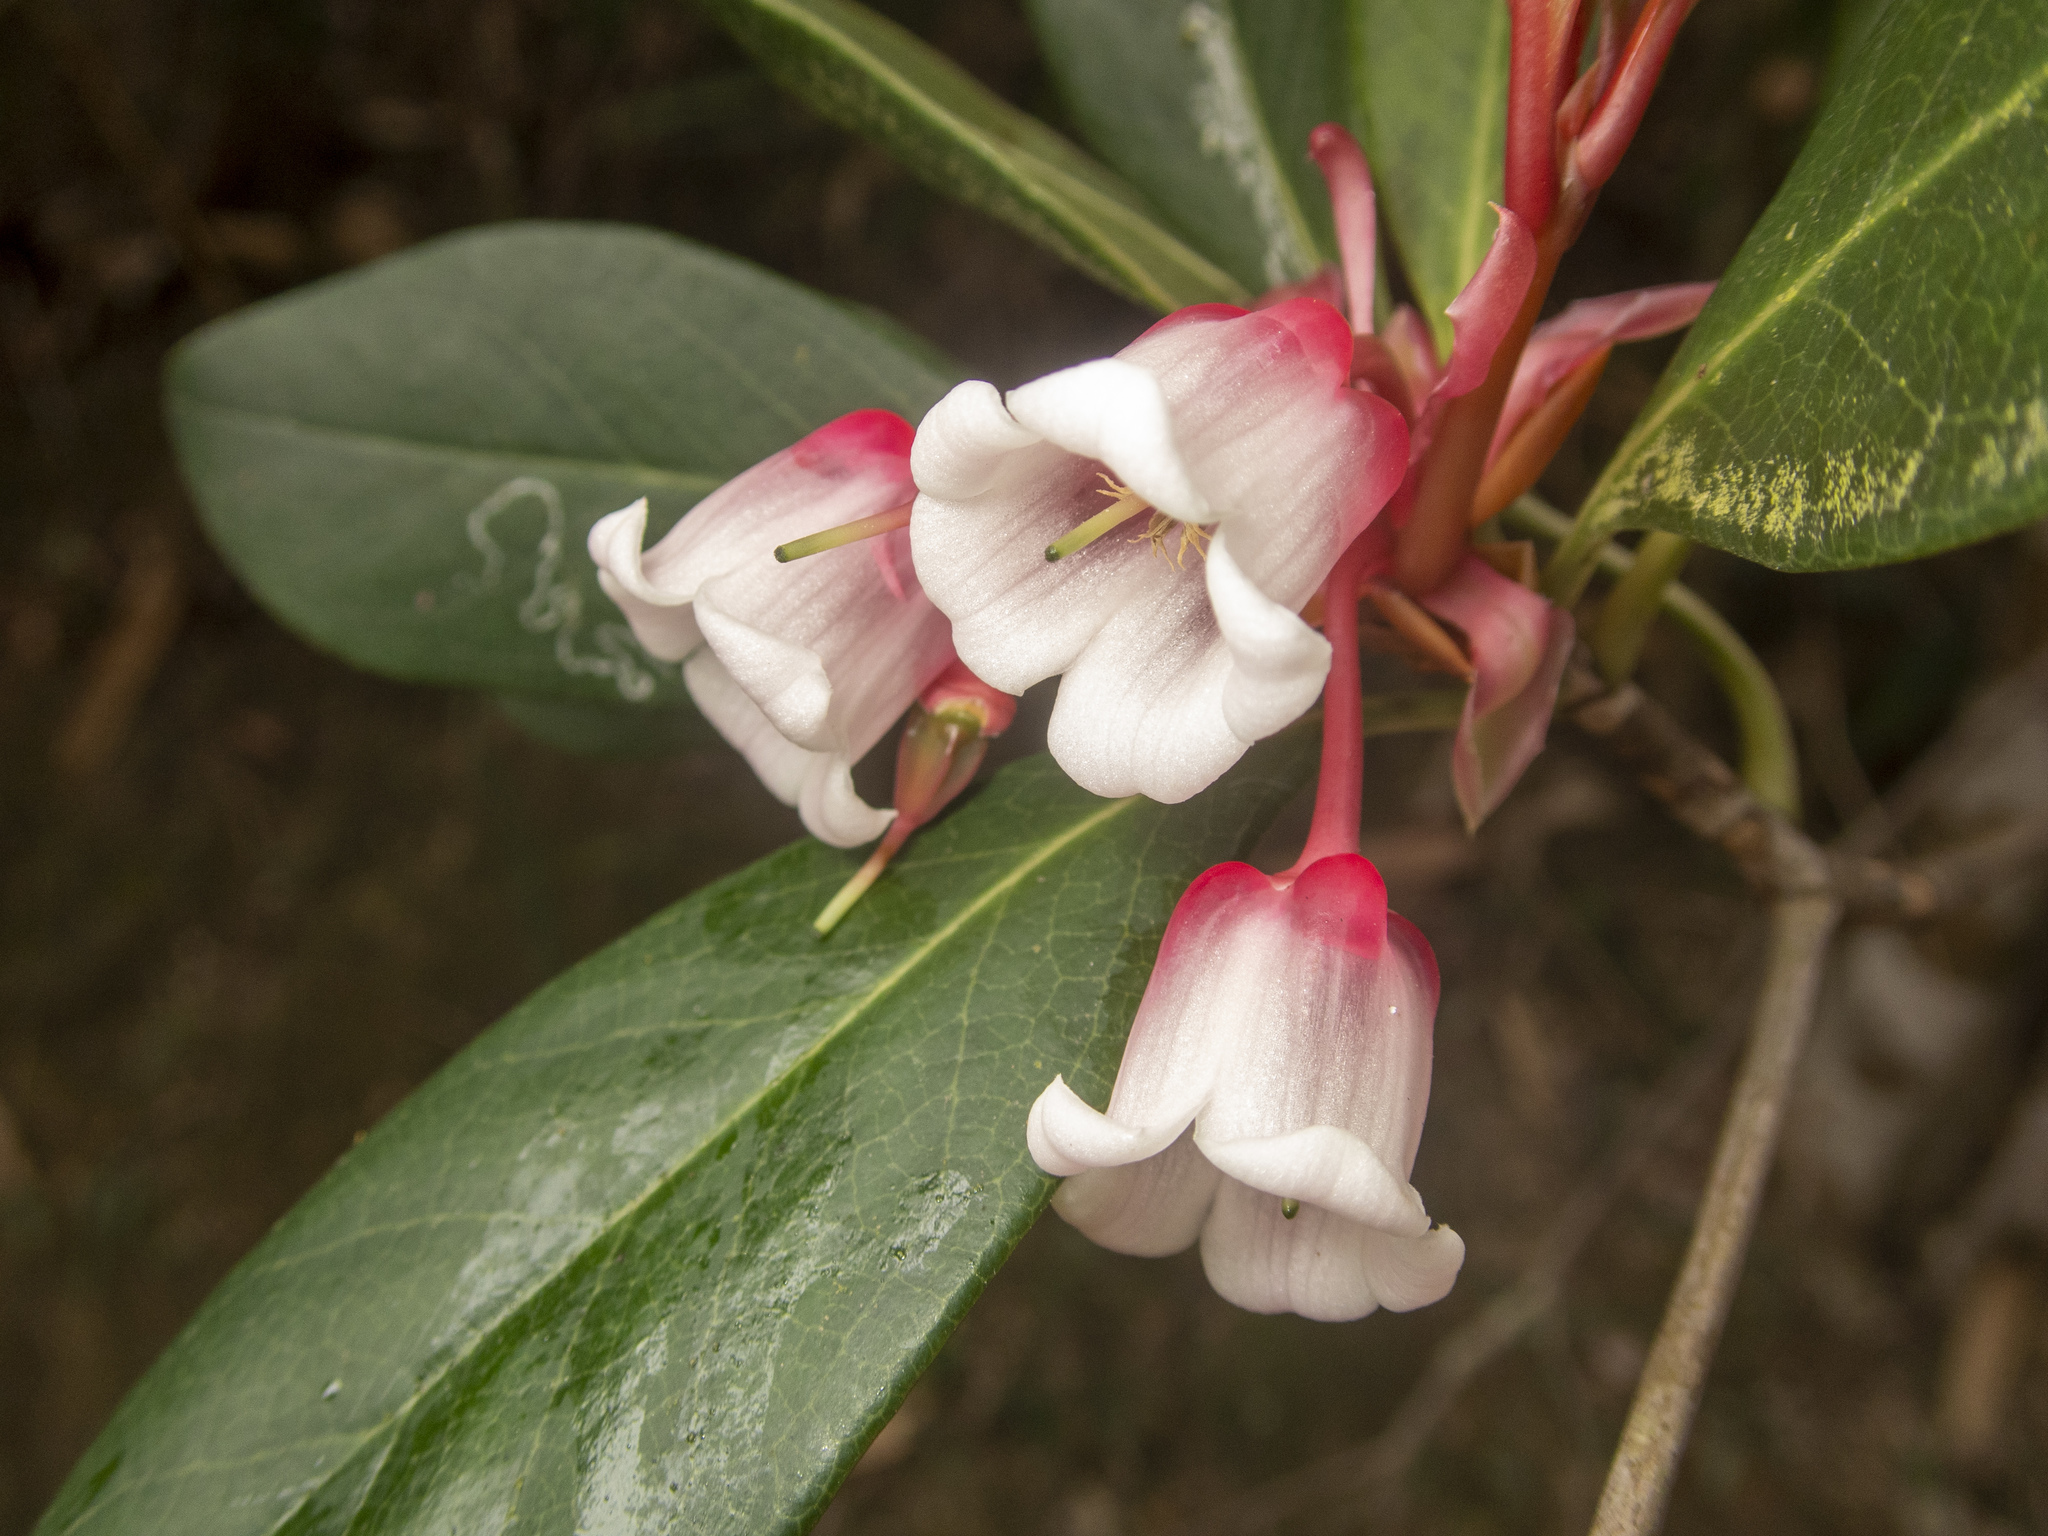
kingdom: Plantae
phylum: Tracheophyta
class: Magnoliopsida
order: Ericales
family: Ericaceae
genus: Enkianthus
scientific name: Enkianthus quinqueflorus
